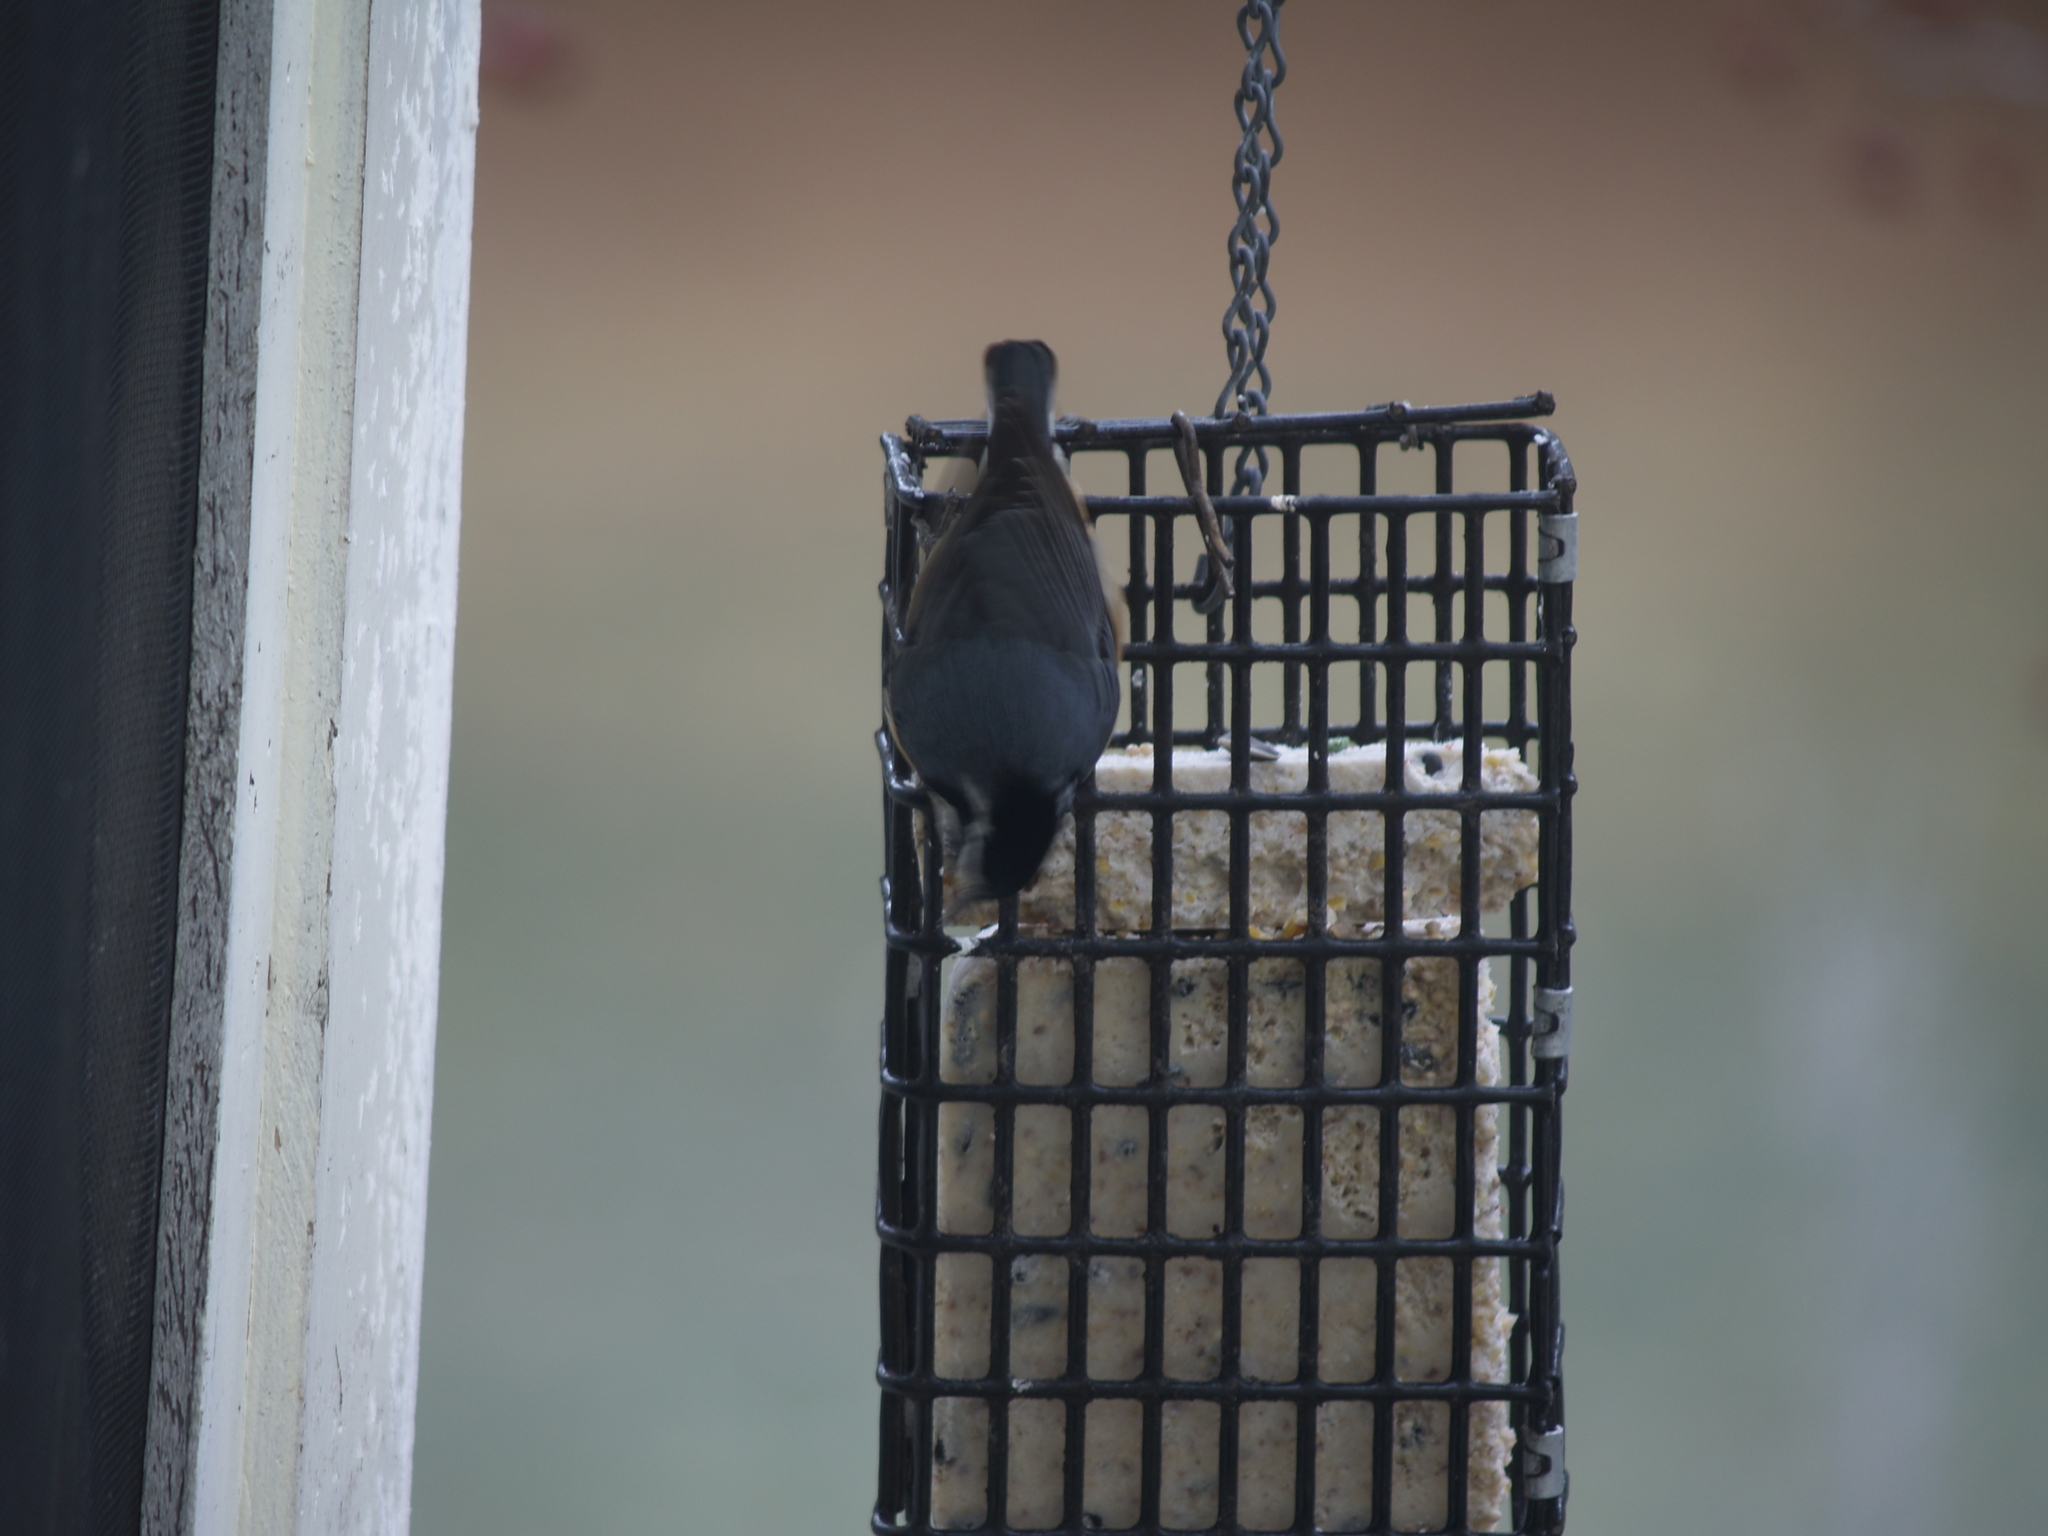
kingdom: Animalia
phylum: Chordata
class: Aves
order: Passeriformes
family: Sittidae
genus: Sitta
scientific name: Sitta canadensis
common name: Red-breasted nuthatch
